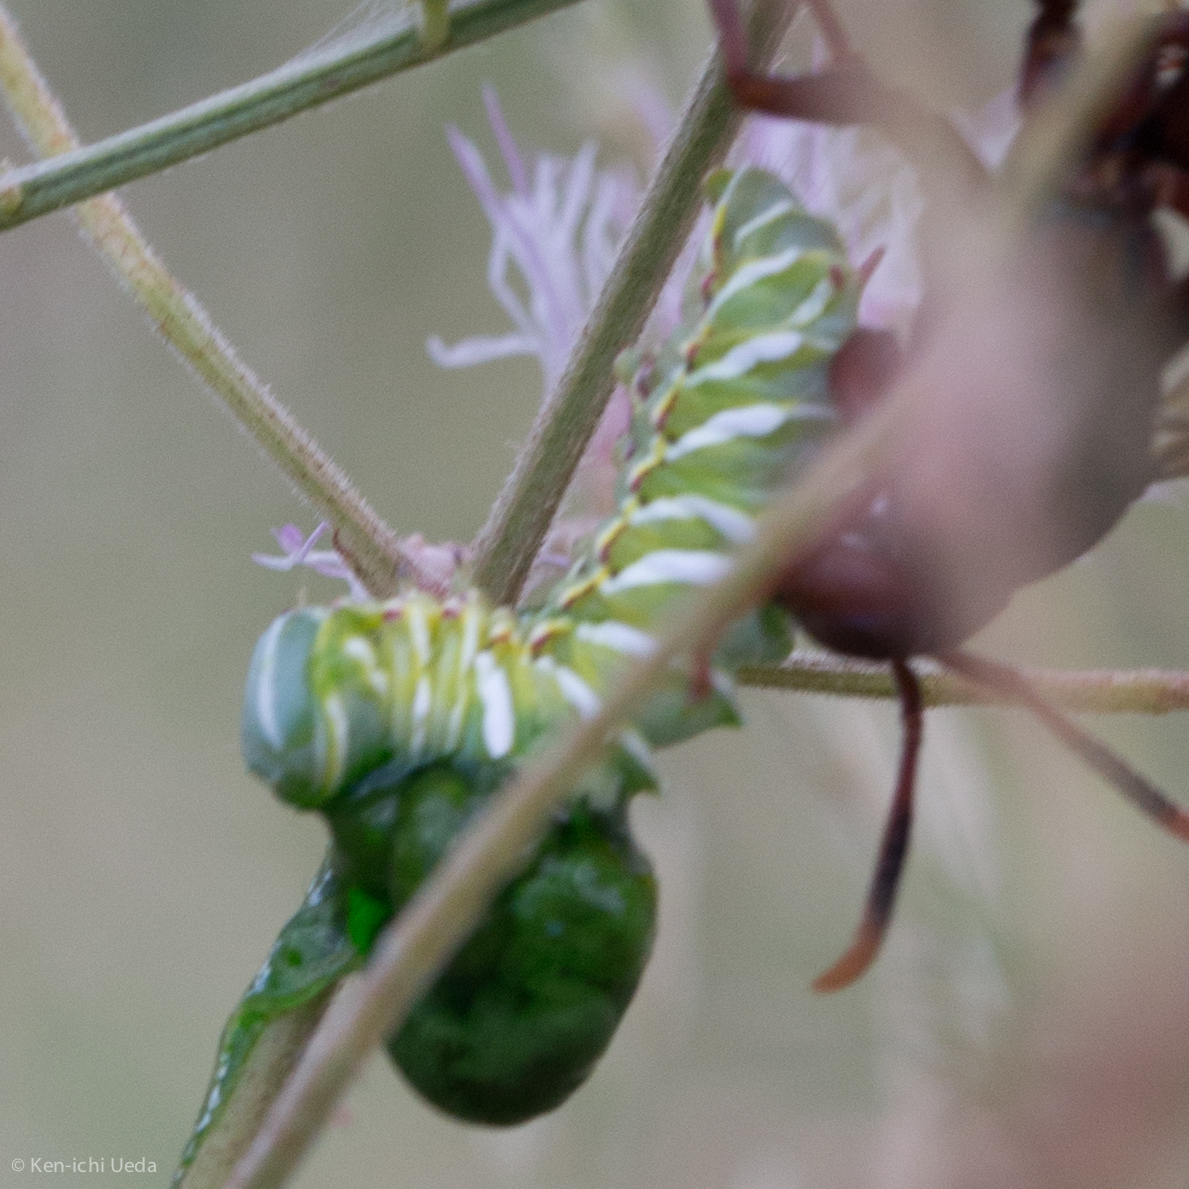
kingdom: Animalia
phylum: Arthropoda
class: Insecta
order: Lepidoptera
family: Notodontidae
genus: Afilia
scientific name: Afilia oslari
